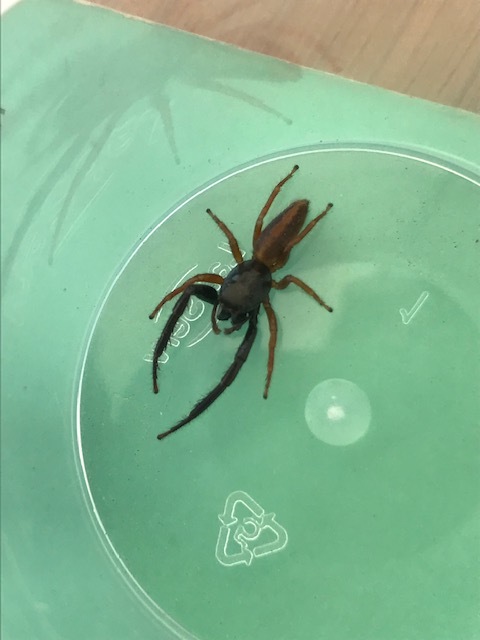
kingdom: Animalia
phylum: Arthropoda
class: Arachnida
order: Araneae
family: Salticidae
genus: Trite
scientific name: Trite planiceps
